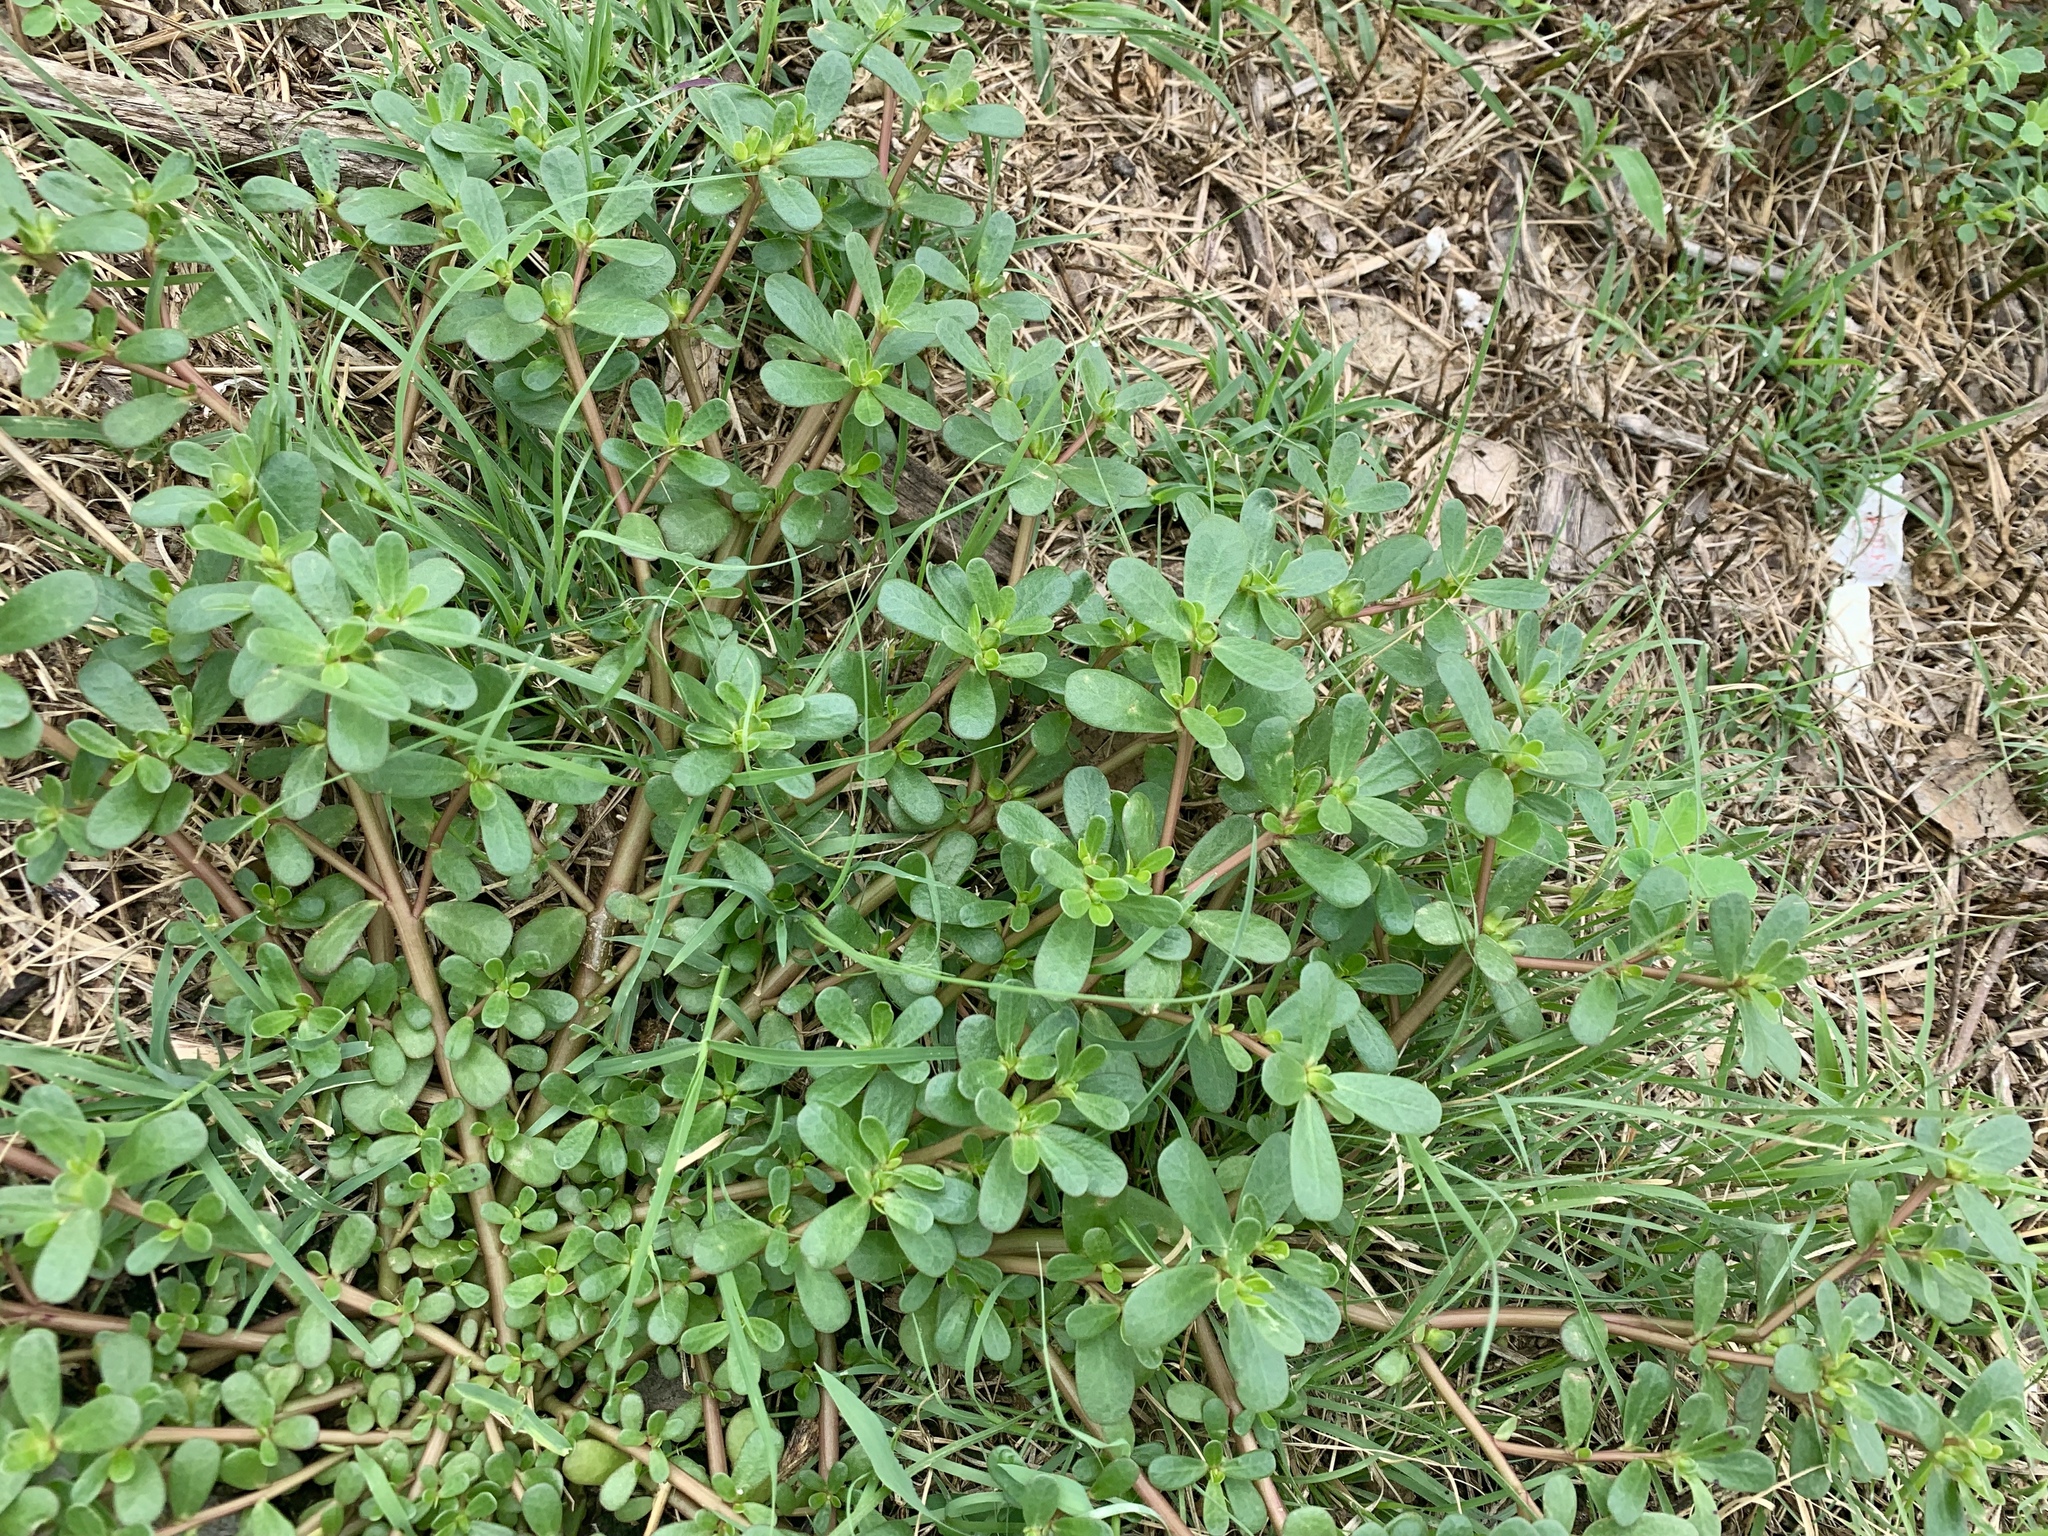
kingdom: Plantae
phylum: Tracheophyta
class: Magnoliopsida
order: Caryophyllales
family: Portulacaceae
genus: Portulaca
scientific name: Portulaca oleracea
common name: Common purslane
